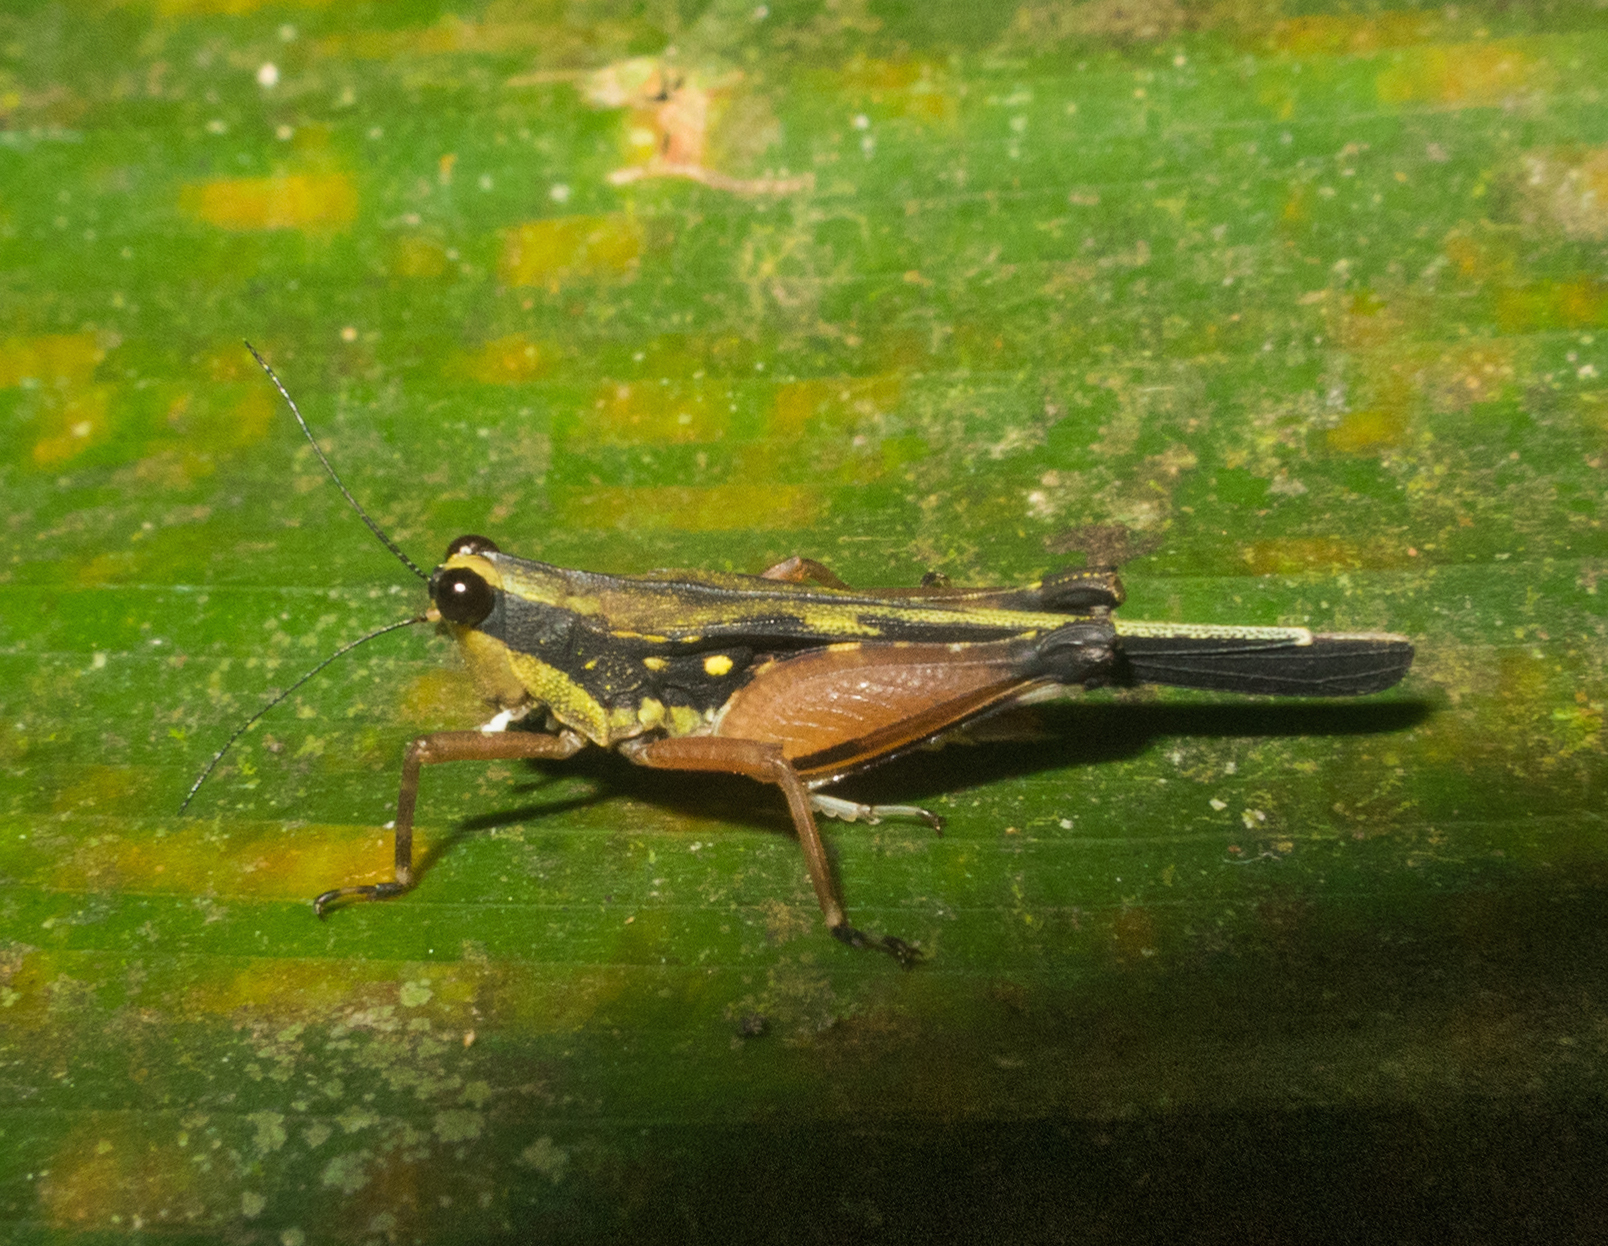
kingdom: Animalia
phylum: Arthropoda
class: Insecta
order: Orthoptera
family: Tetrigidae
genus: Scaria
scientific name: Scaria fasciata
